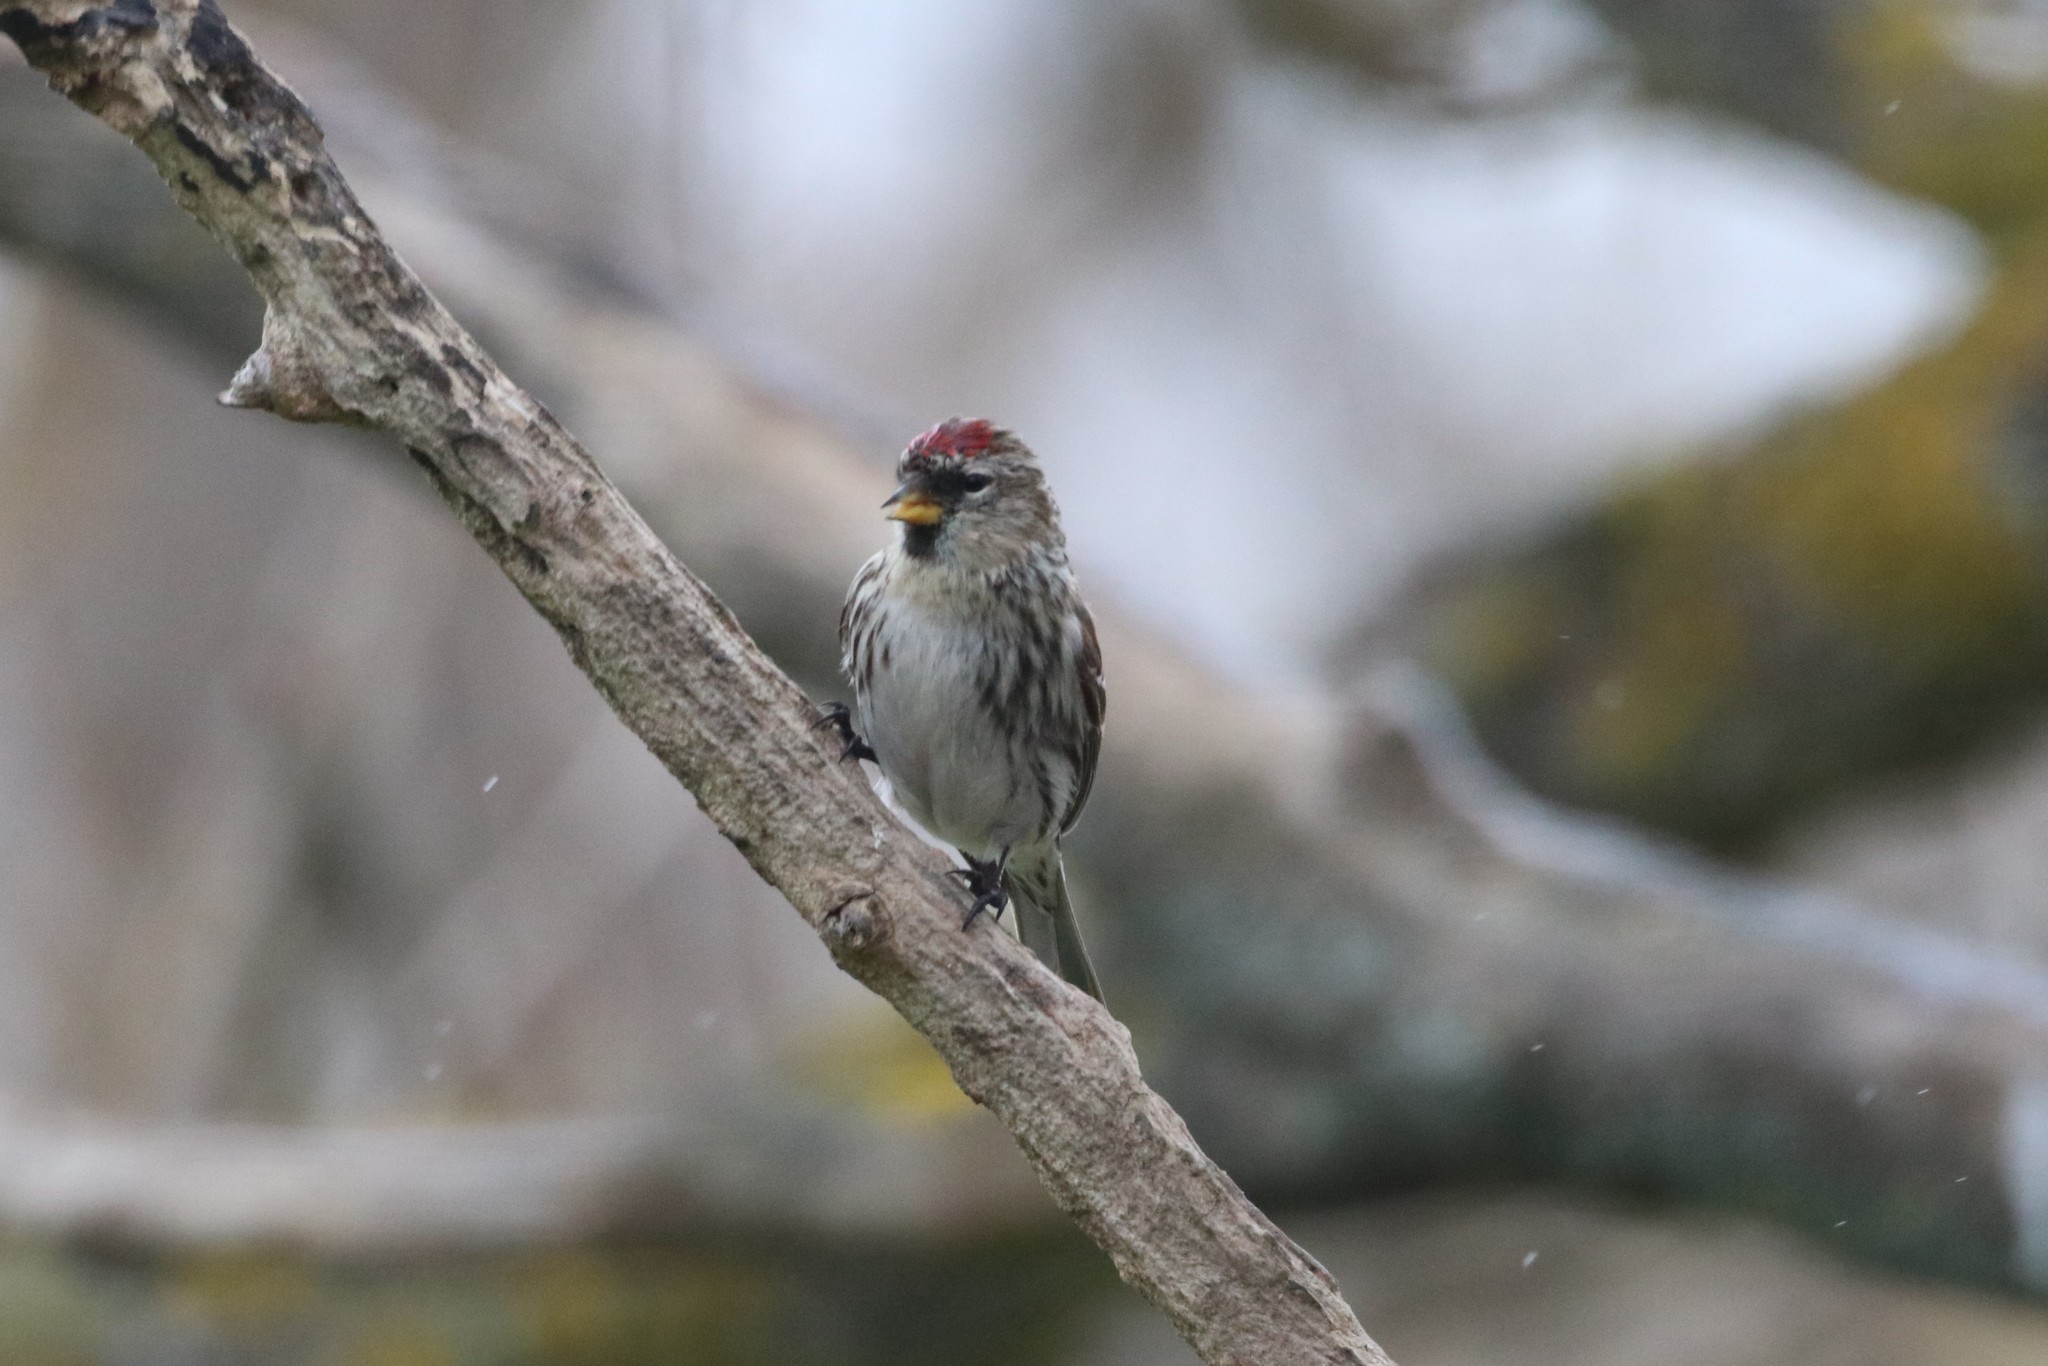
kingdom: Animalia
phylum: Chordata
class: Aves
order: Passeriformes
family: Fringillidae
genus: Acanthis
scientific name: Acanthis flammea
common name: Common redpoll
